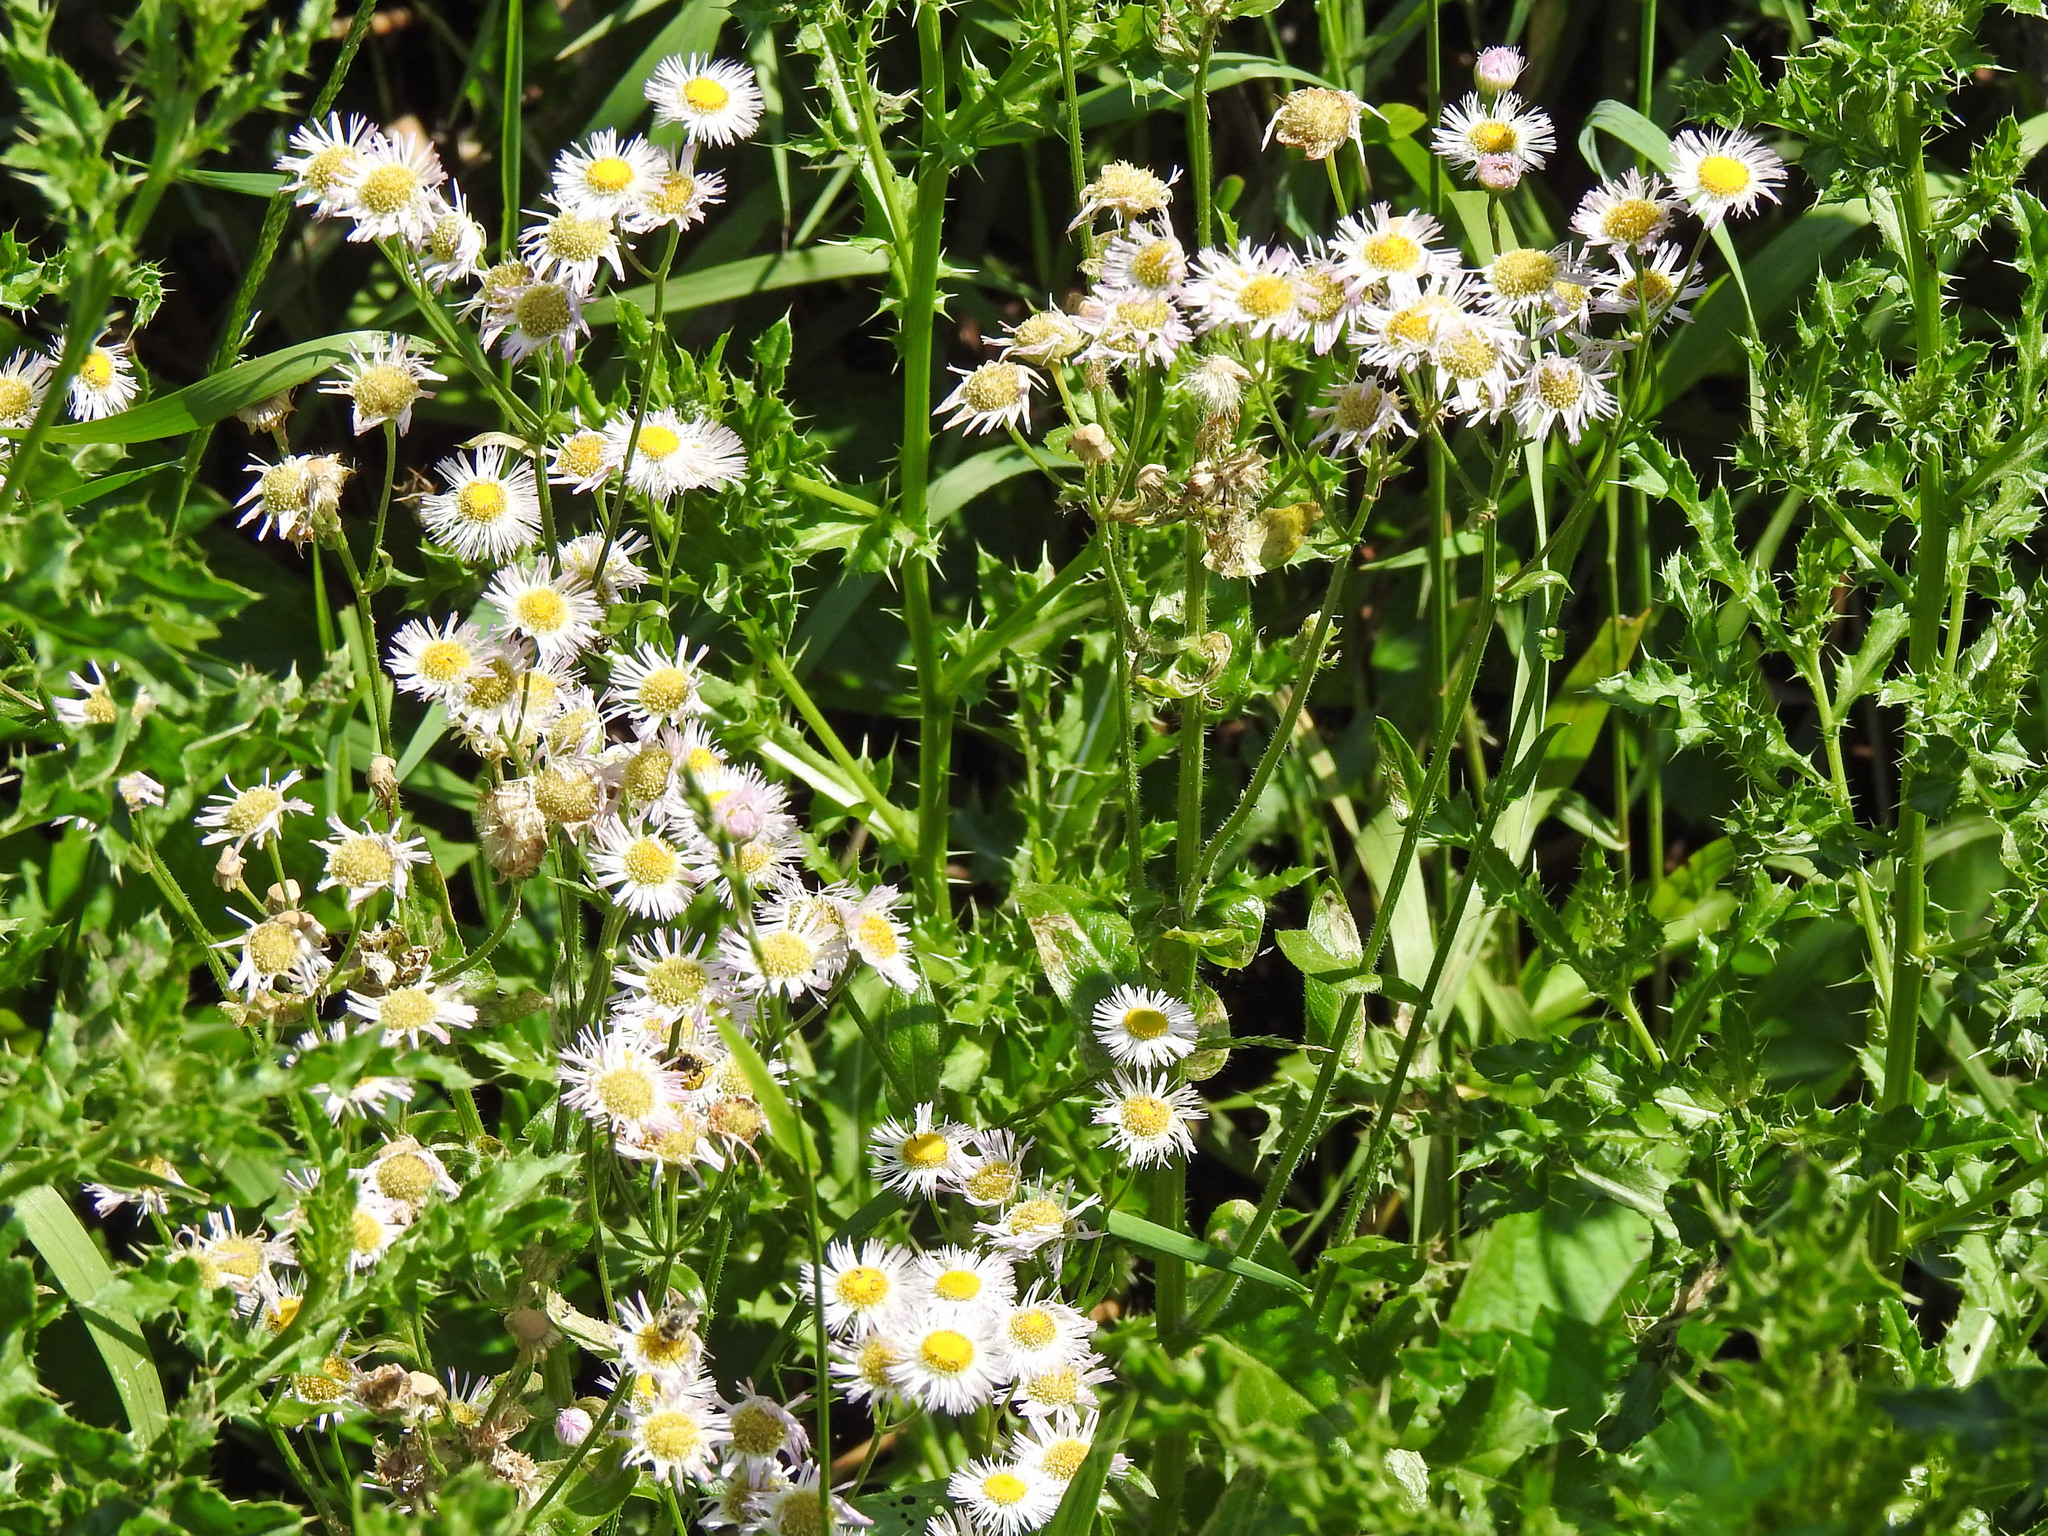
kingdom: Plantae
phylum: Tracheophyta
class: Magnoliopsida
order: Asterales
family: Asteraceae
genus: Erigeron
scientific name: Erigeron philadelphicus
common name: Robin's-plantain
